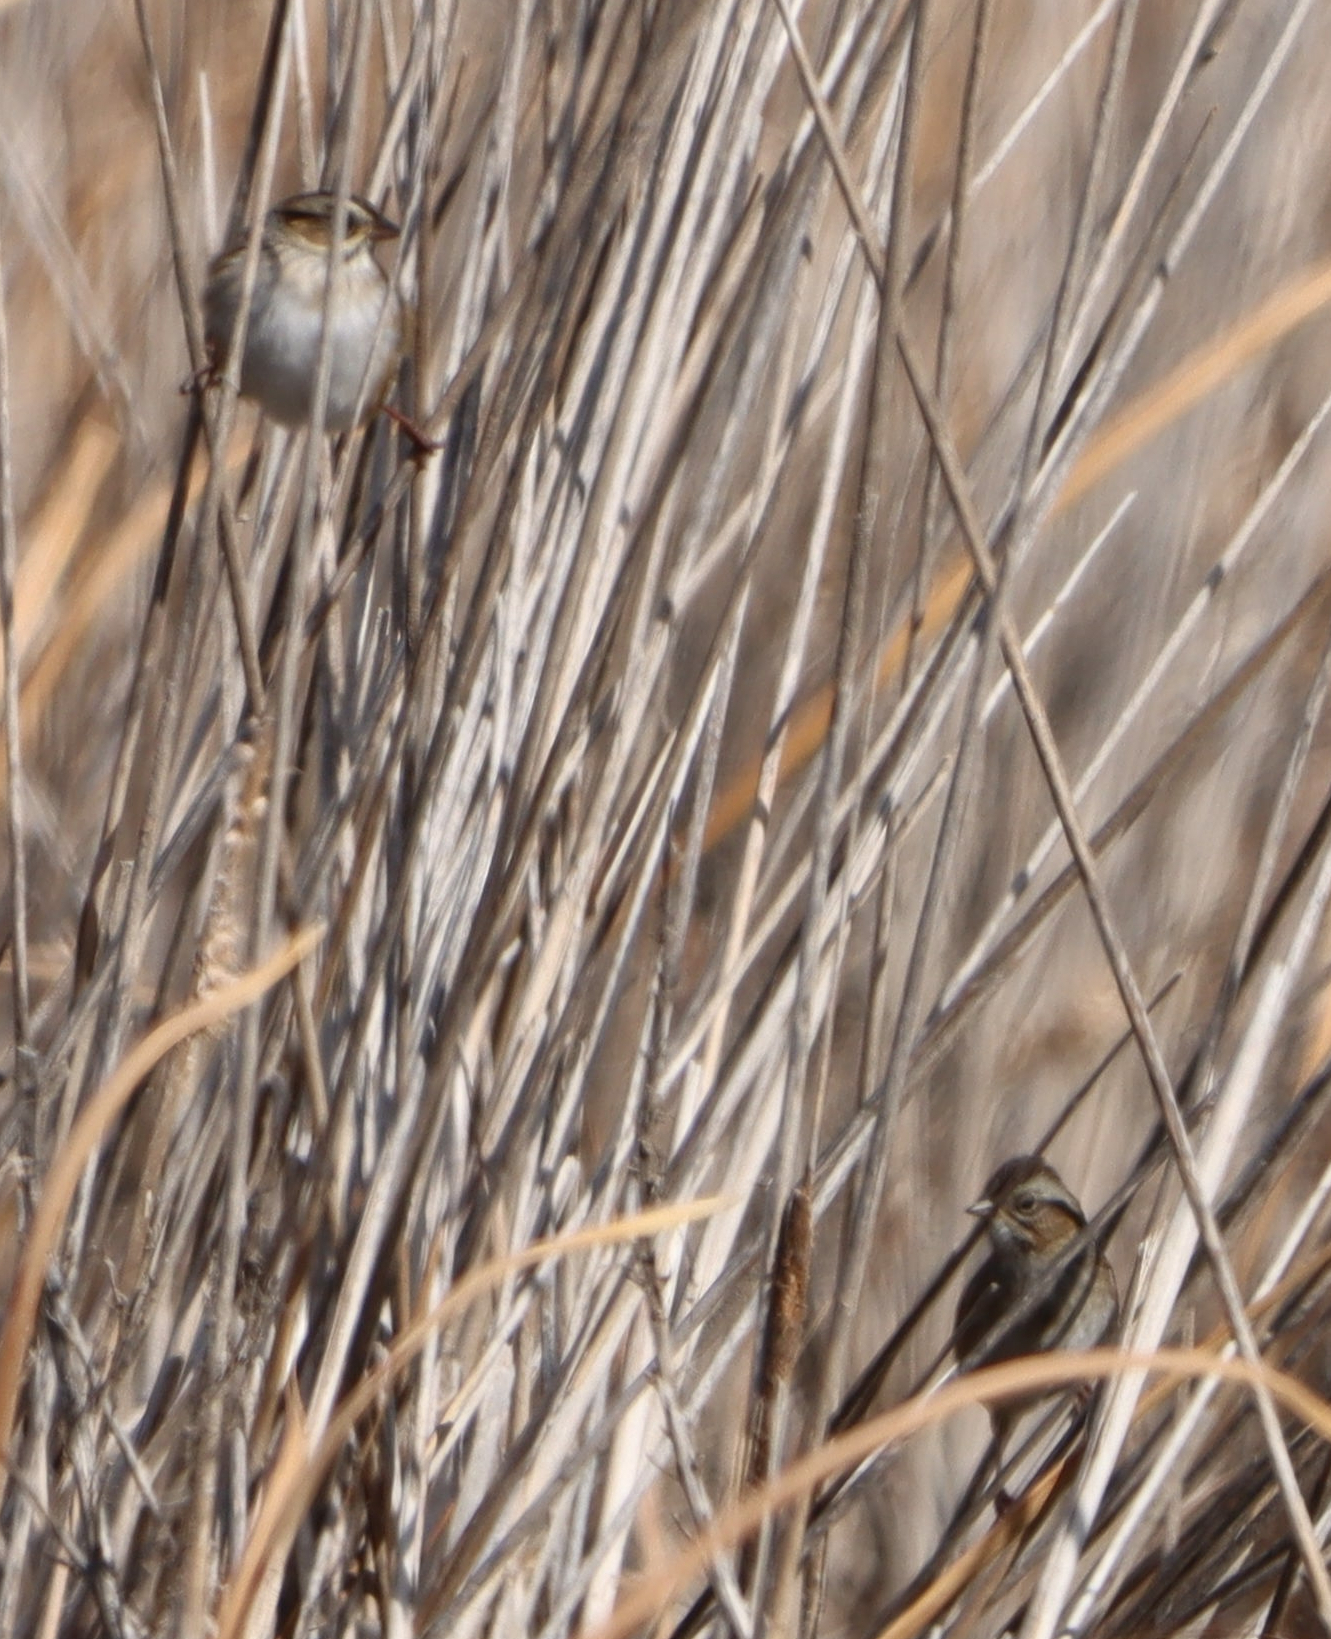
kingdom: Animalia
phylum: Chordata
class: Aves
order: Passeriformes
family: Passerellidae
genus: Melospiza
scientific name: Melospiza georgiana
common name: Swamp sparrow
